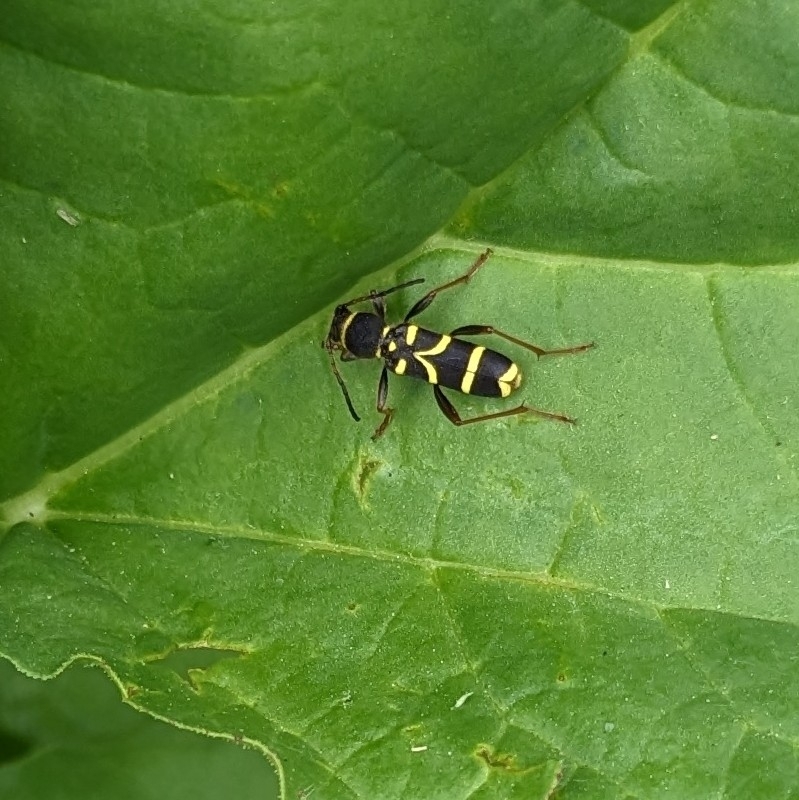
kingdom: Animalia
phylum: Arthropoda
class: Insecta
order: Coleoptera
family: Cerambycidae
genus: Clytus
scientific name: Clytus arietis
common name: Wasp beetle
